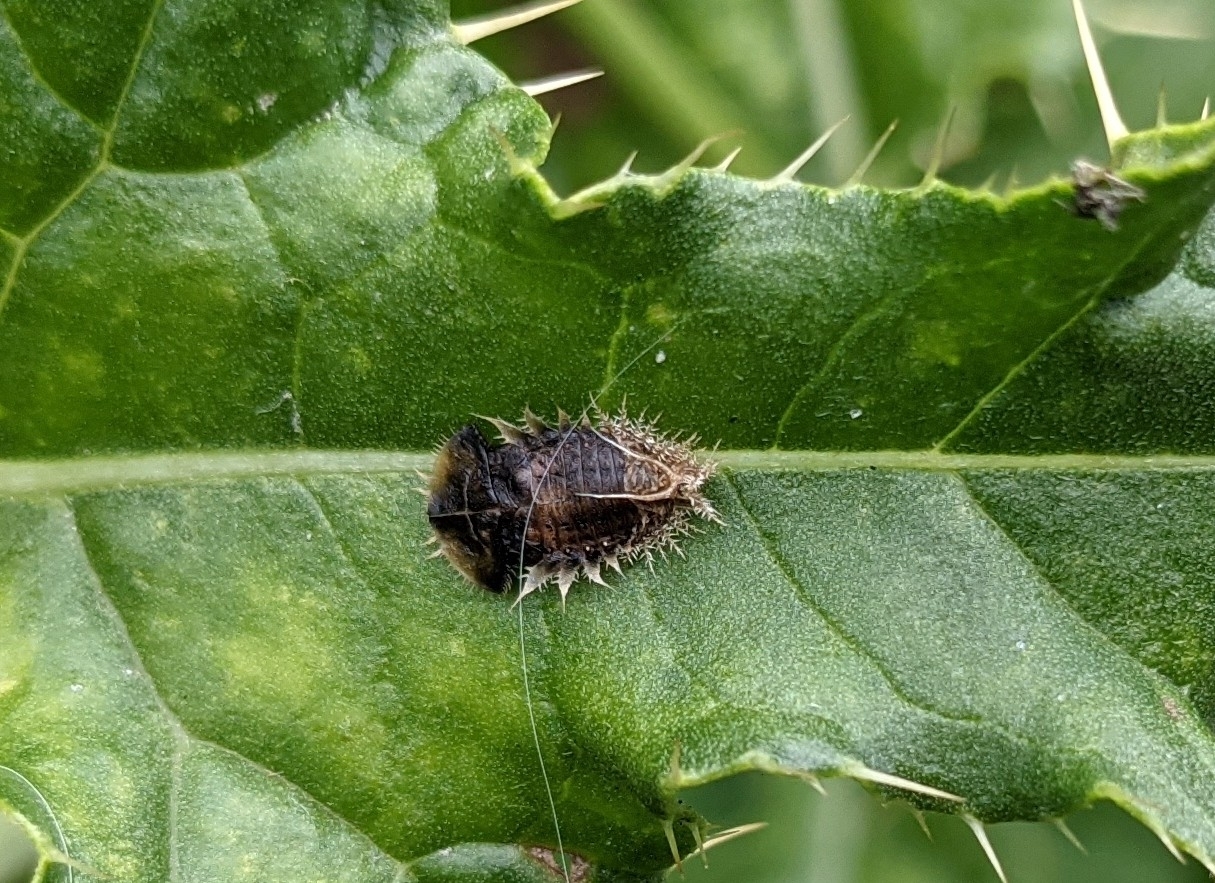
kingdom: Animalia
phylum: Arthropoda
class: Insecta
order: Coleoptera
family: Chrysomelidae
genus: Cassida
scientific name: Cassida rubiginosa
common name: Thistle tortoise beetle
